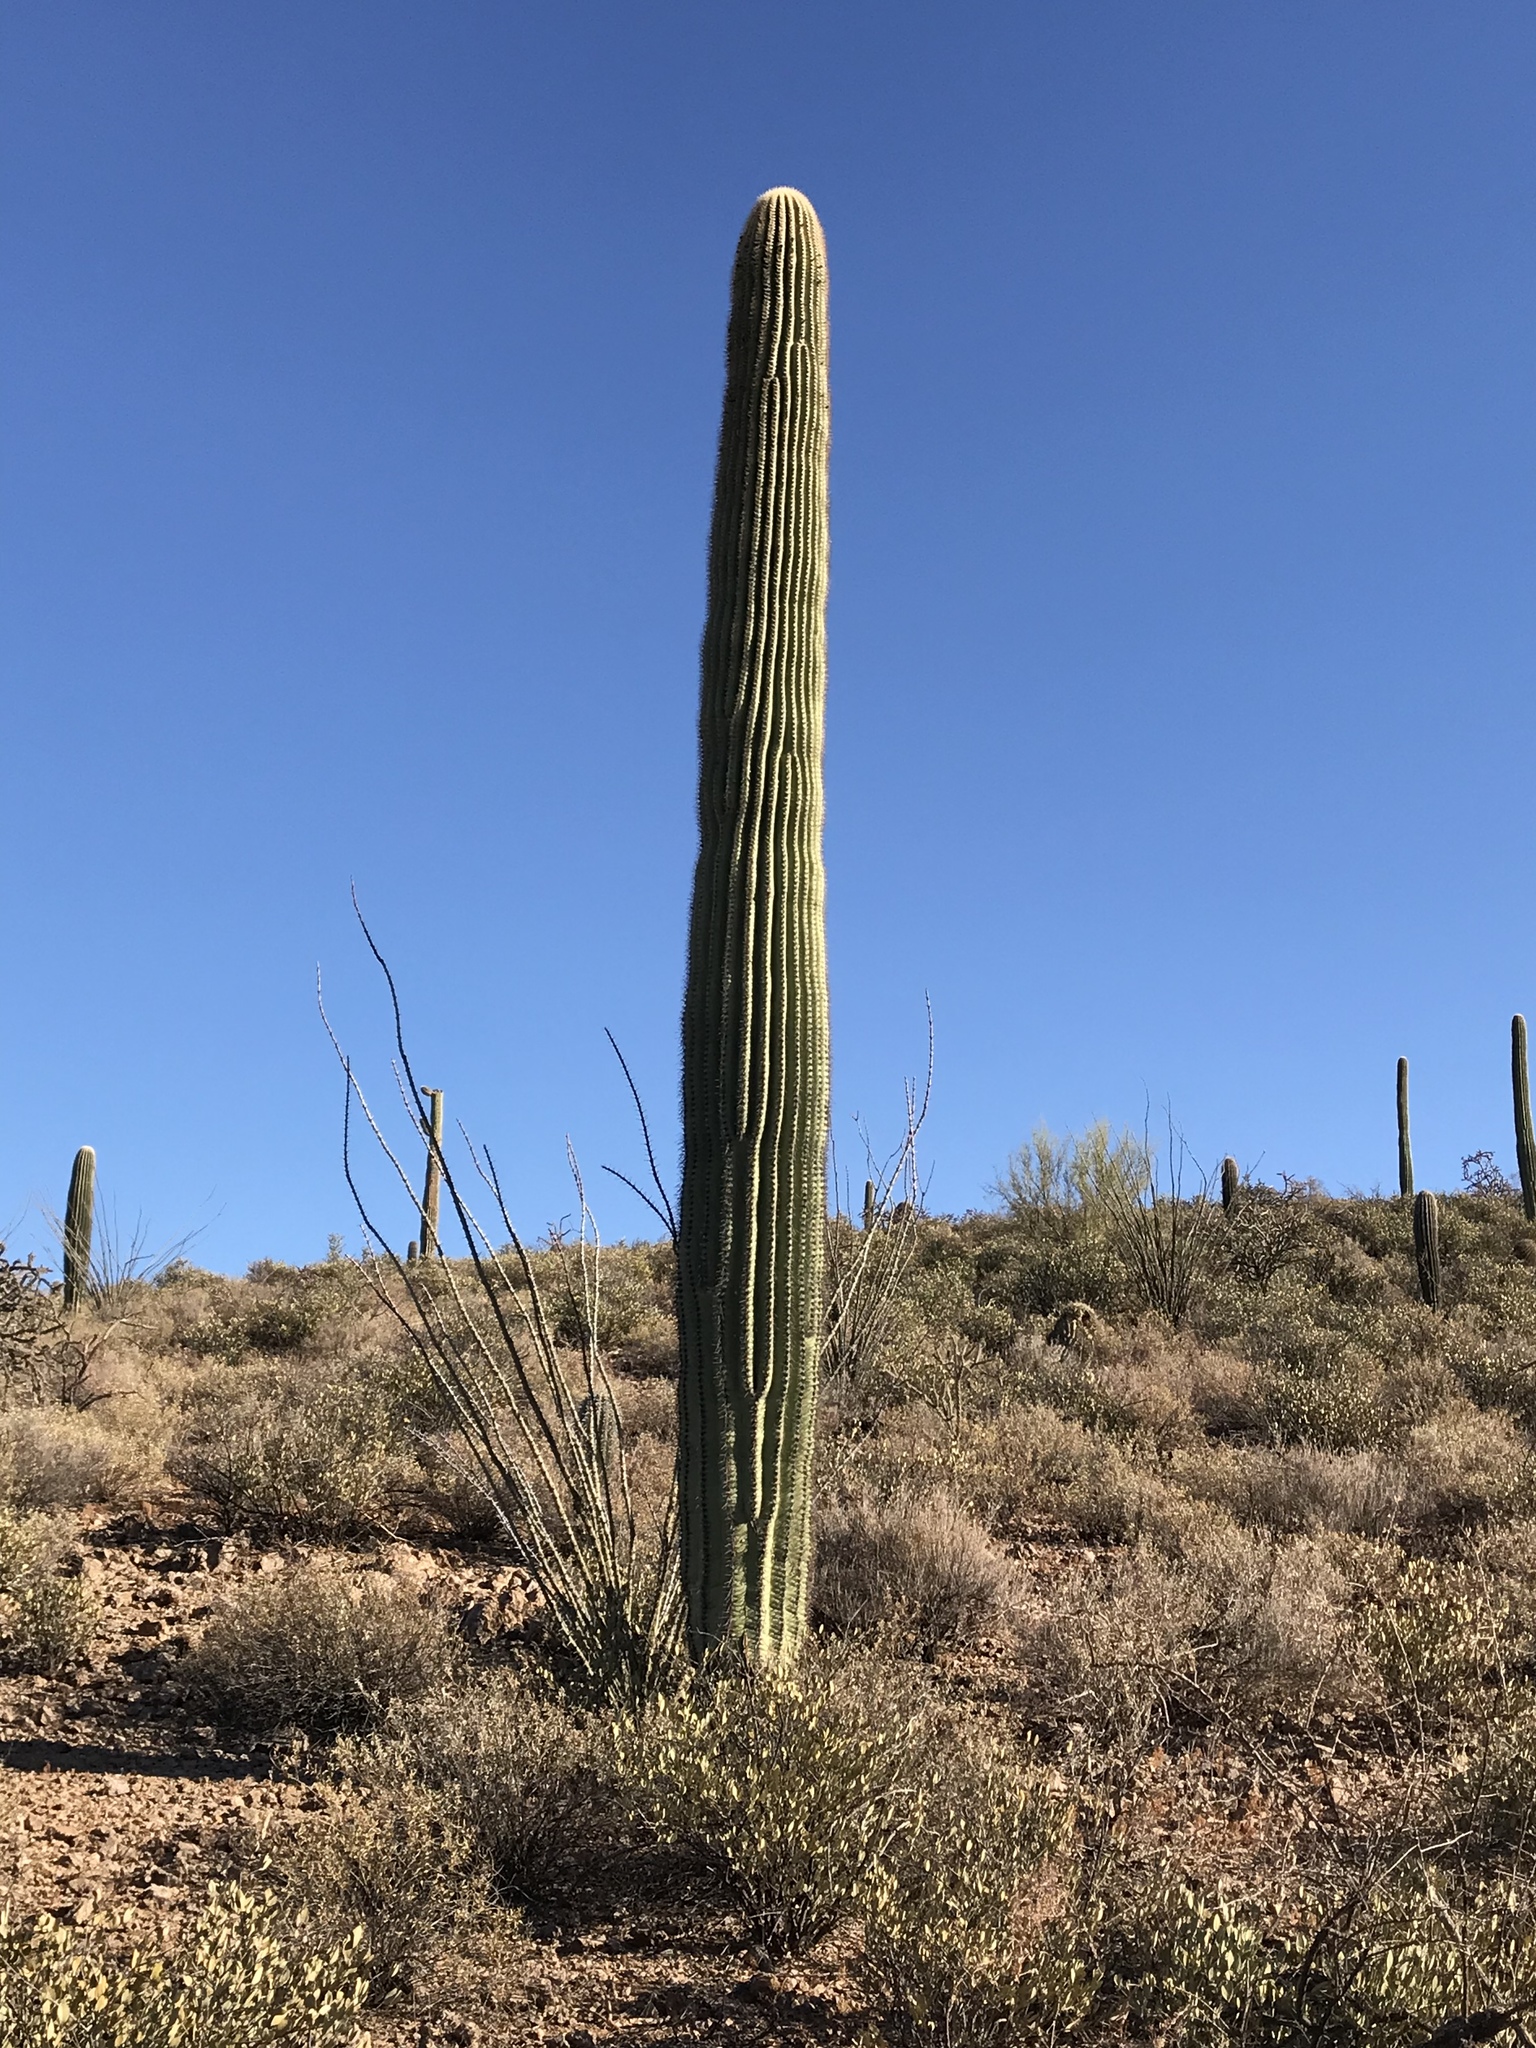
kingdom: Plantae
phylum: Tracheophyta
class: Magnoliopsida
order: Caryophyllales
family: Cactaceae
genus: Carnegiea
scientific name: Carnegiea gigantea
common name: Saguaro
